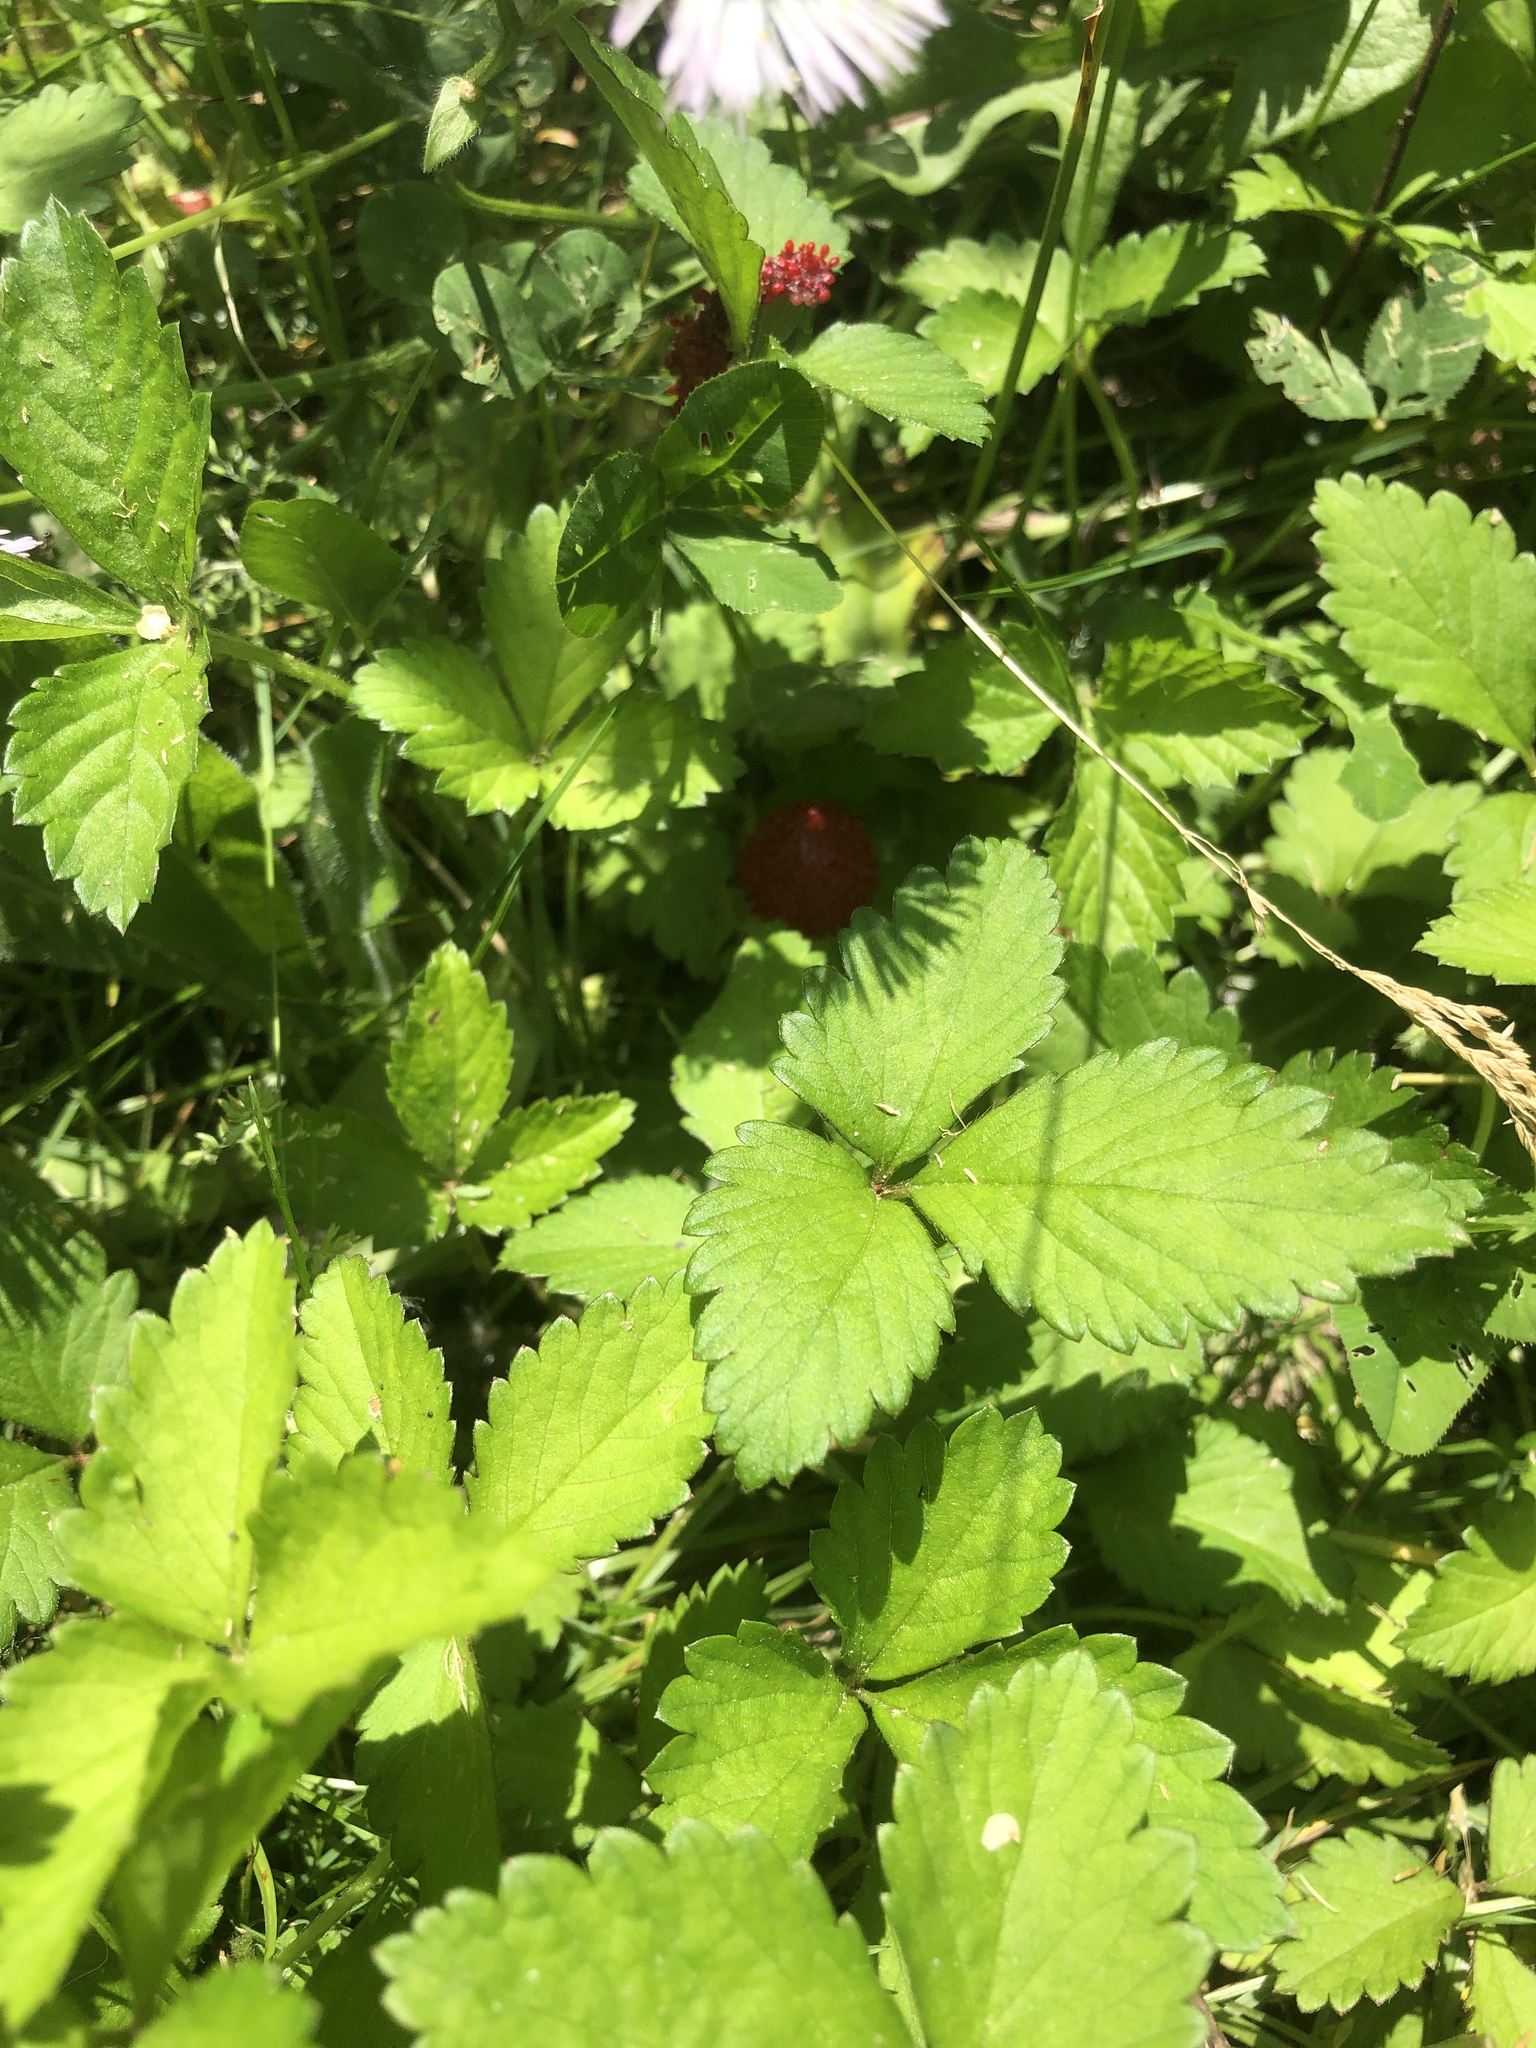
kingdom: Plantae
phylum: Tracheophyta
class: Magnoliopsida
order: Rosales
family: Rosaceae
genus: Potentilla
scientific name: Potentilla indica
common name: Yellow-flowered strawberry
